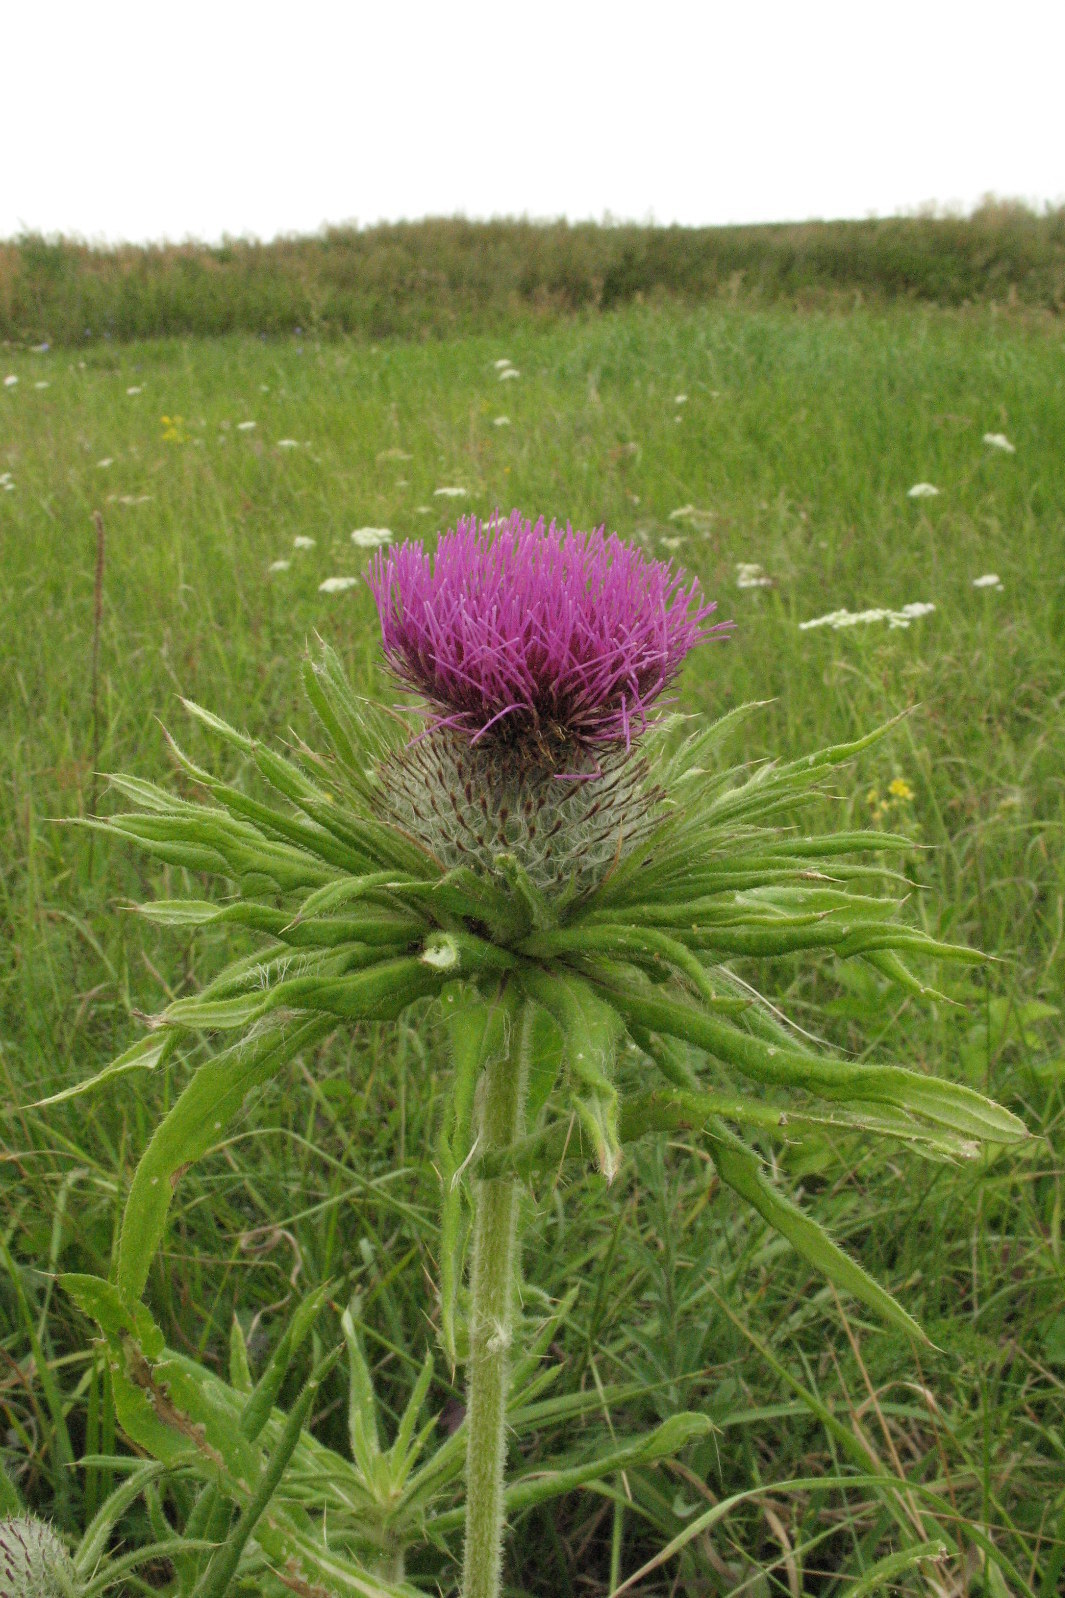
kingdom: Plantae
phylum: Tracheophyta
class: Magnoliopsida
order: Asterales
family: Asteraceae
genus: Lophiolepis
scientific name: Lophiolepis decussata
